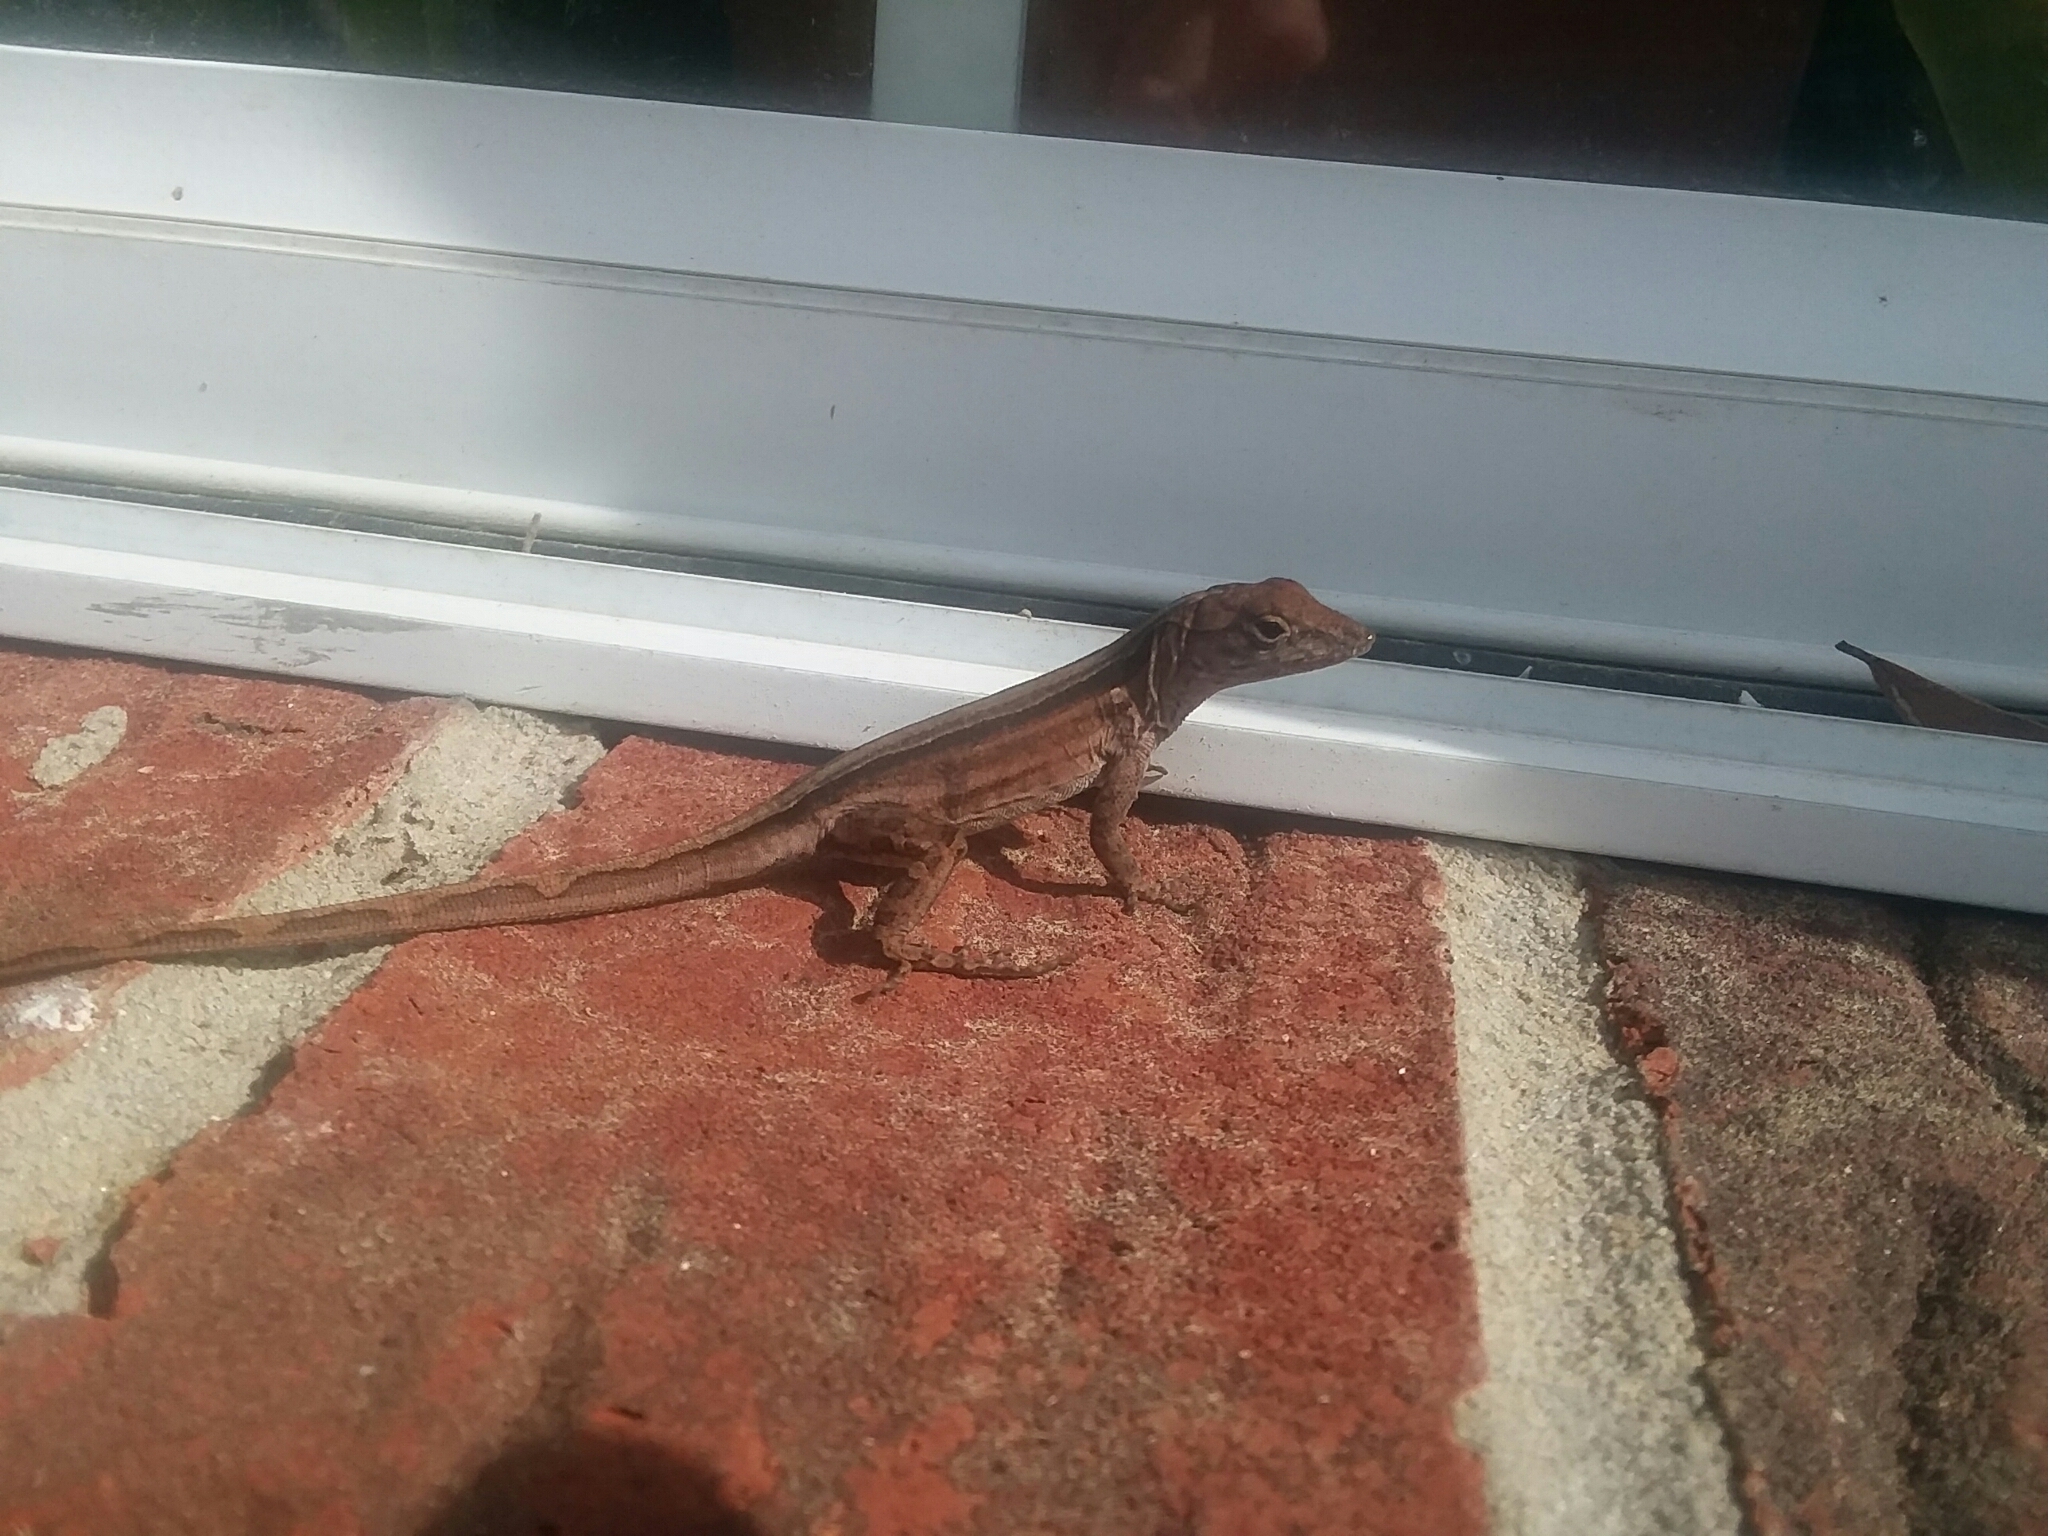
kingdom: Animalia
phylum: Chordata
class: Squamata
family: Dactyloidae
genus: Anolis
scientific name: Anolis sagrei
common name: Brown anole
